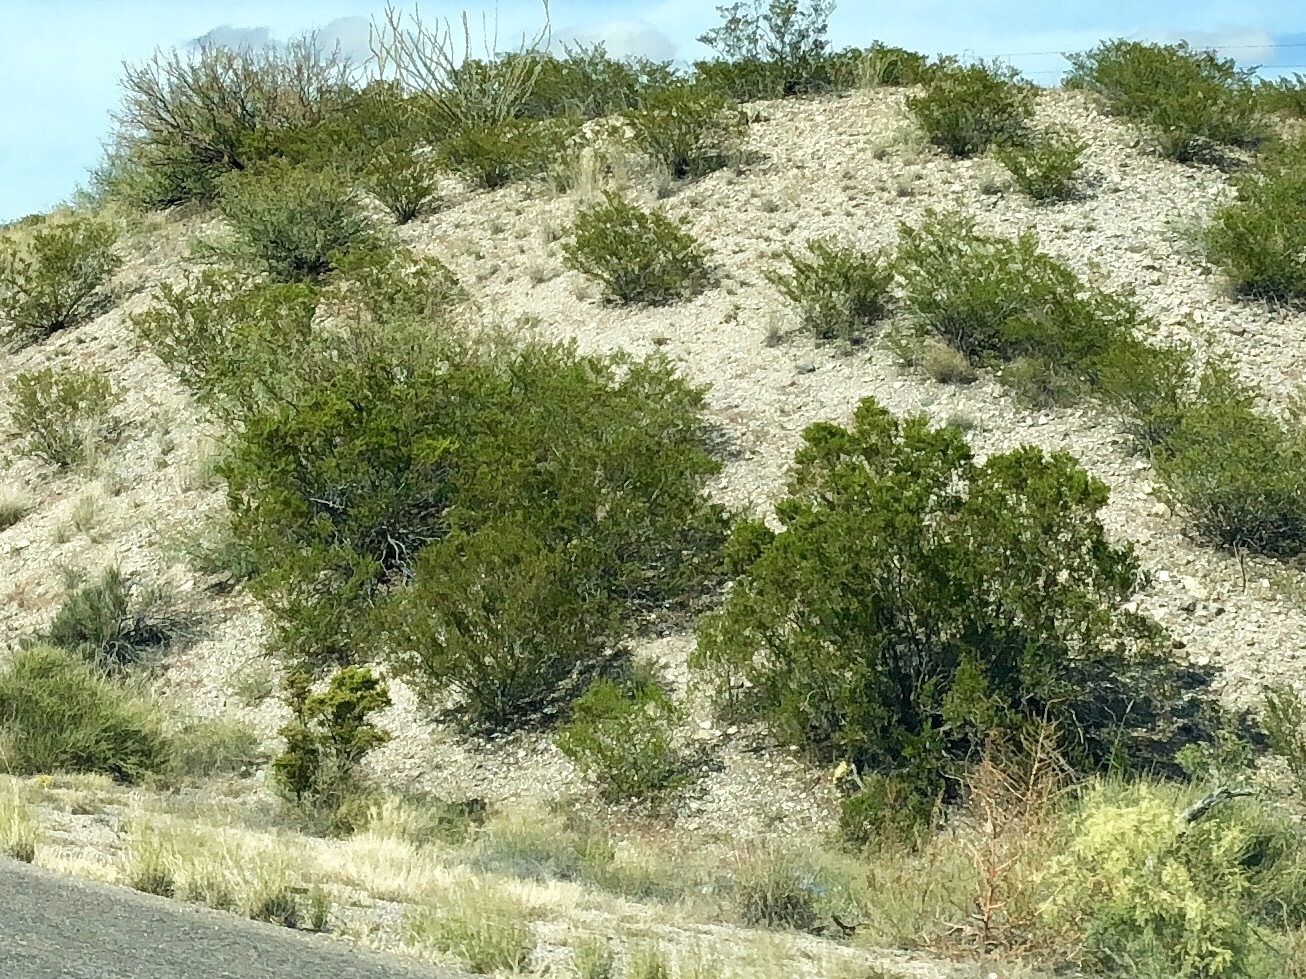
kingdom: Plantae
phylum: Tracheophyta
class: Magnoliopsida
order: Zygophyllales
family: Zygophyllaceae
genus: Larrea
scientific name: Larrea tridentata
